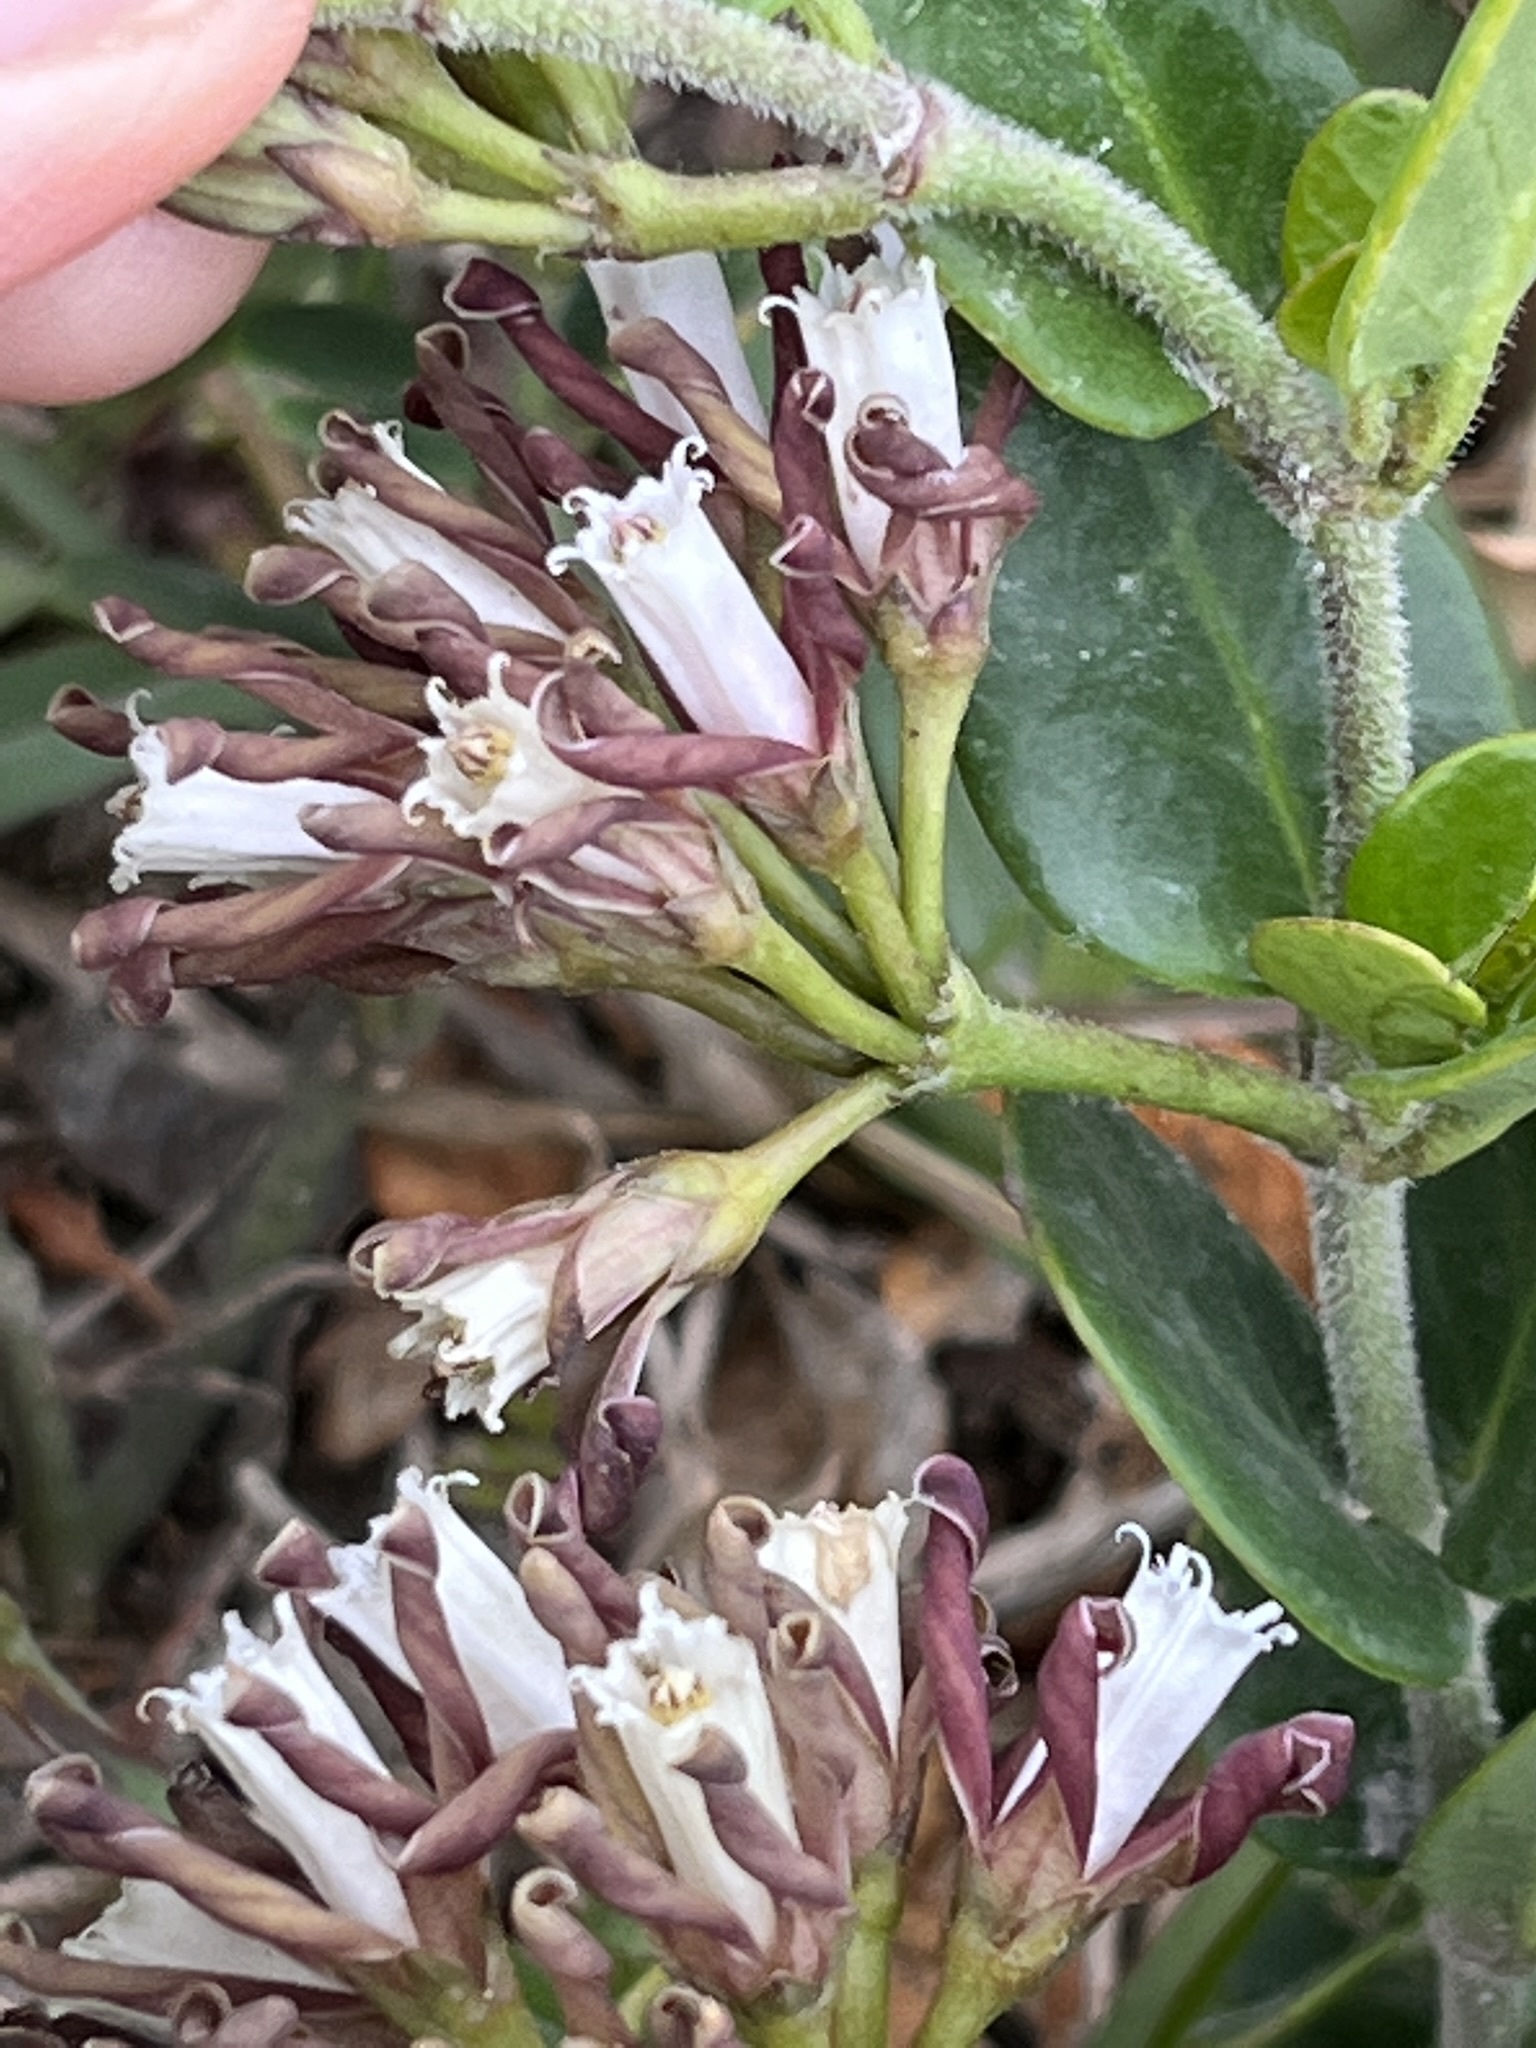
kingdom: Plantae
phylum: Tracheophyta
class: Magnoliopsida
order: Gentianales
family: Apocynaceae
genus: Cynanchum
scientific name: Cynanchum africanum
